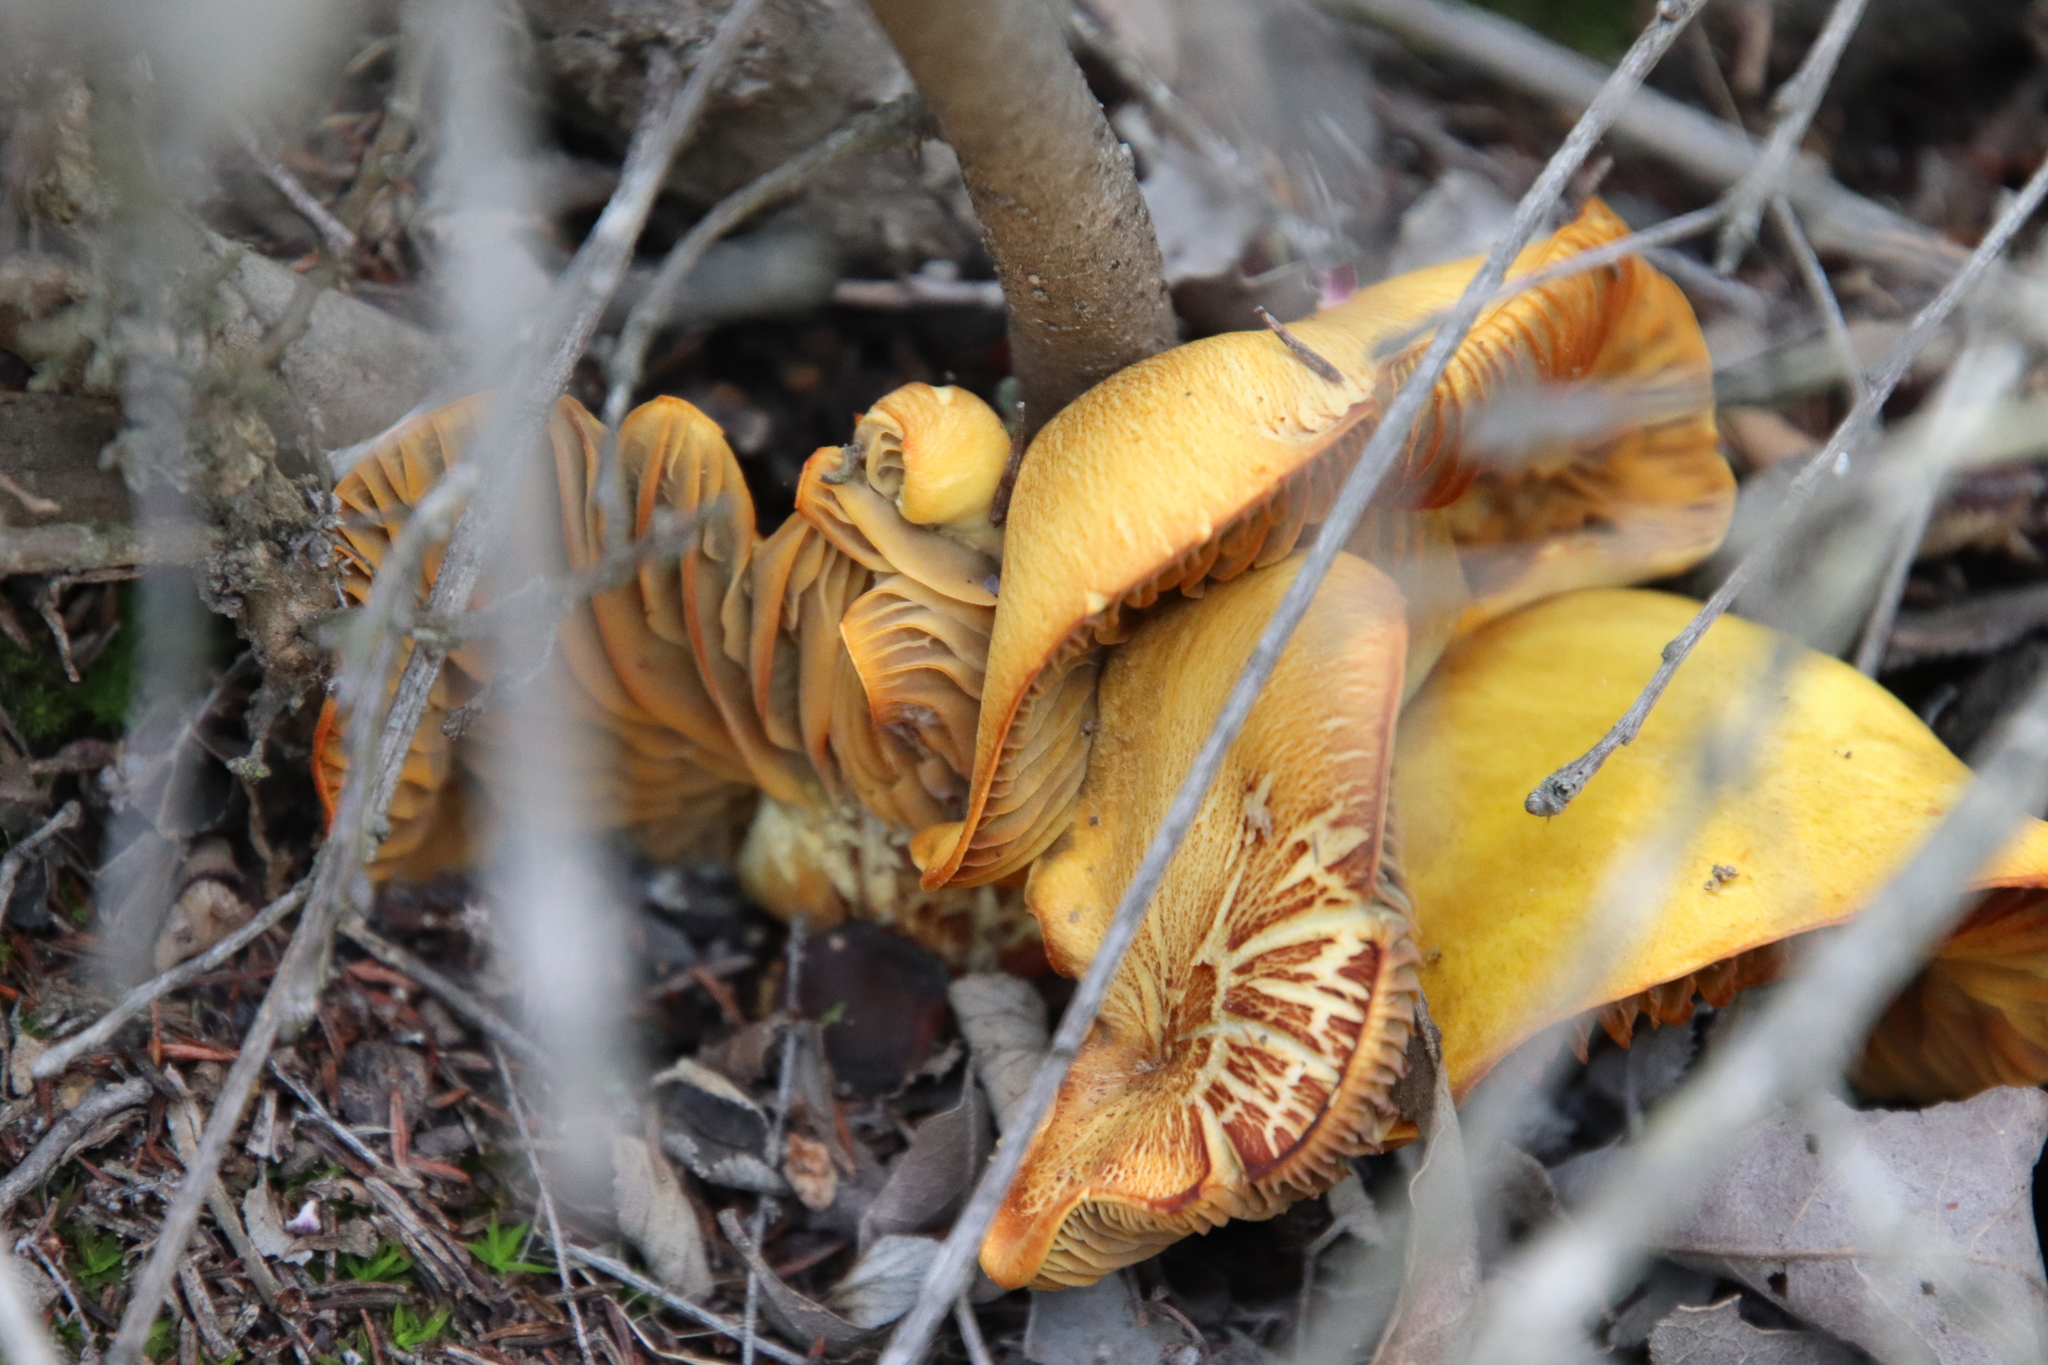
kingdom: Fungi
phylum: Basidiomycota
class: Agaricomycetes
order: Agaricales
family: Omphalotaceae
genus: Omphalotus
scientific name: Omphalotus olivascens
